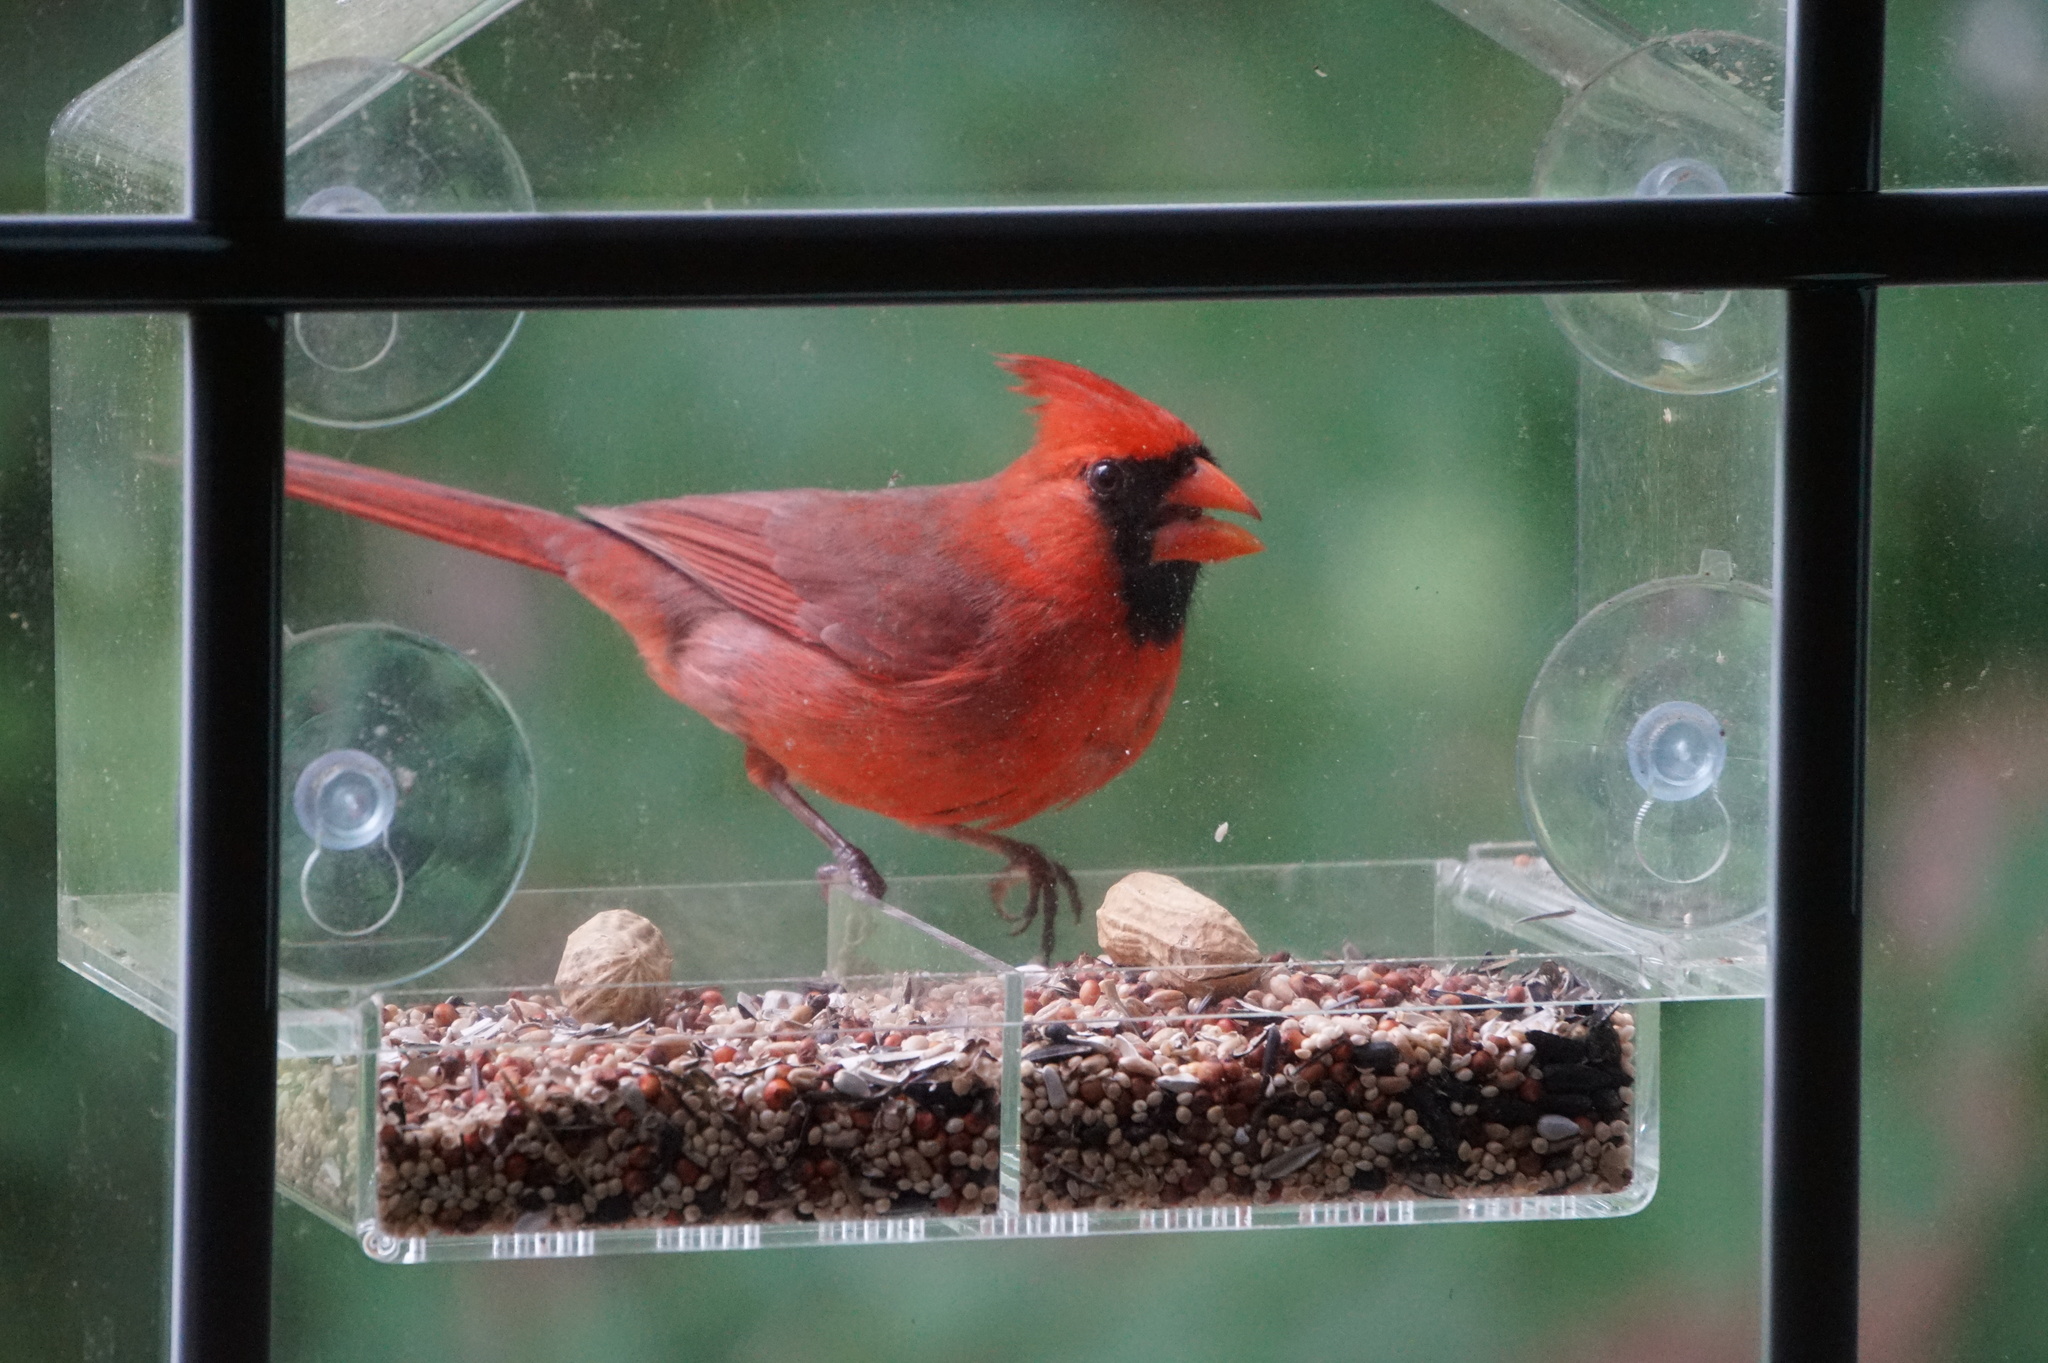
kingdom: Animalia
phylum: Chordata
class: Aves
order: Passeriformes
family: Cardinalidae
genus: Cardinalis
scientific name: Cardinalis cardinalis
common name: Northern cardinal
